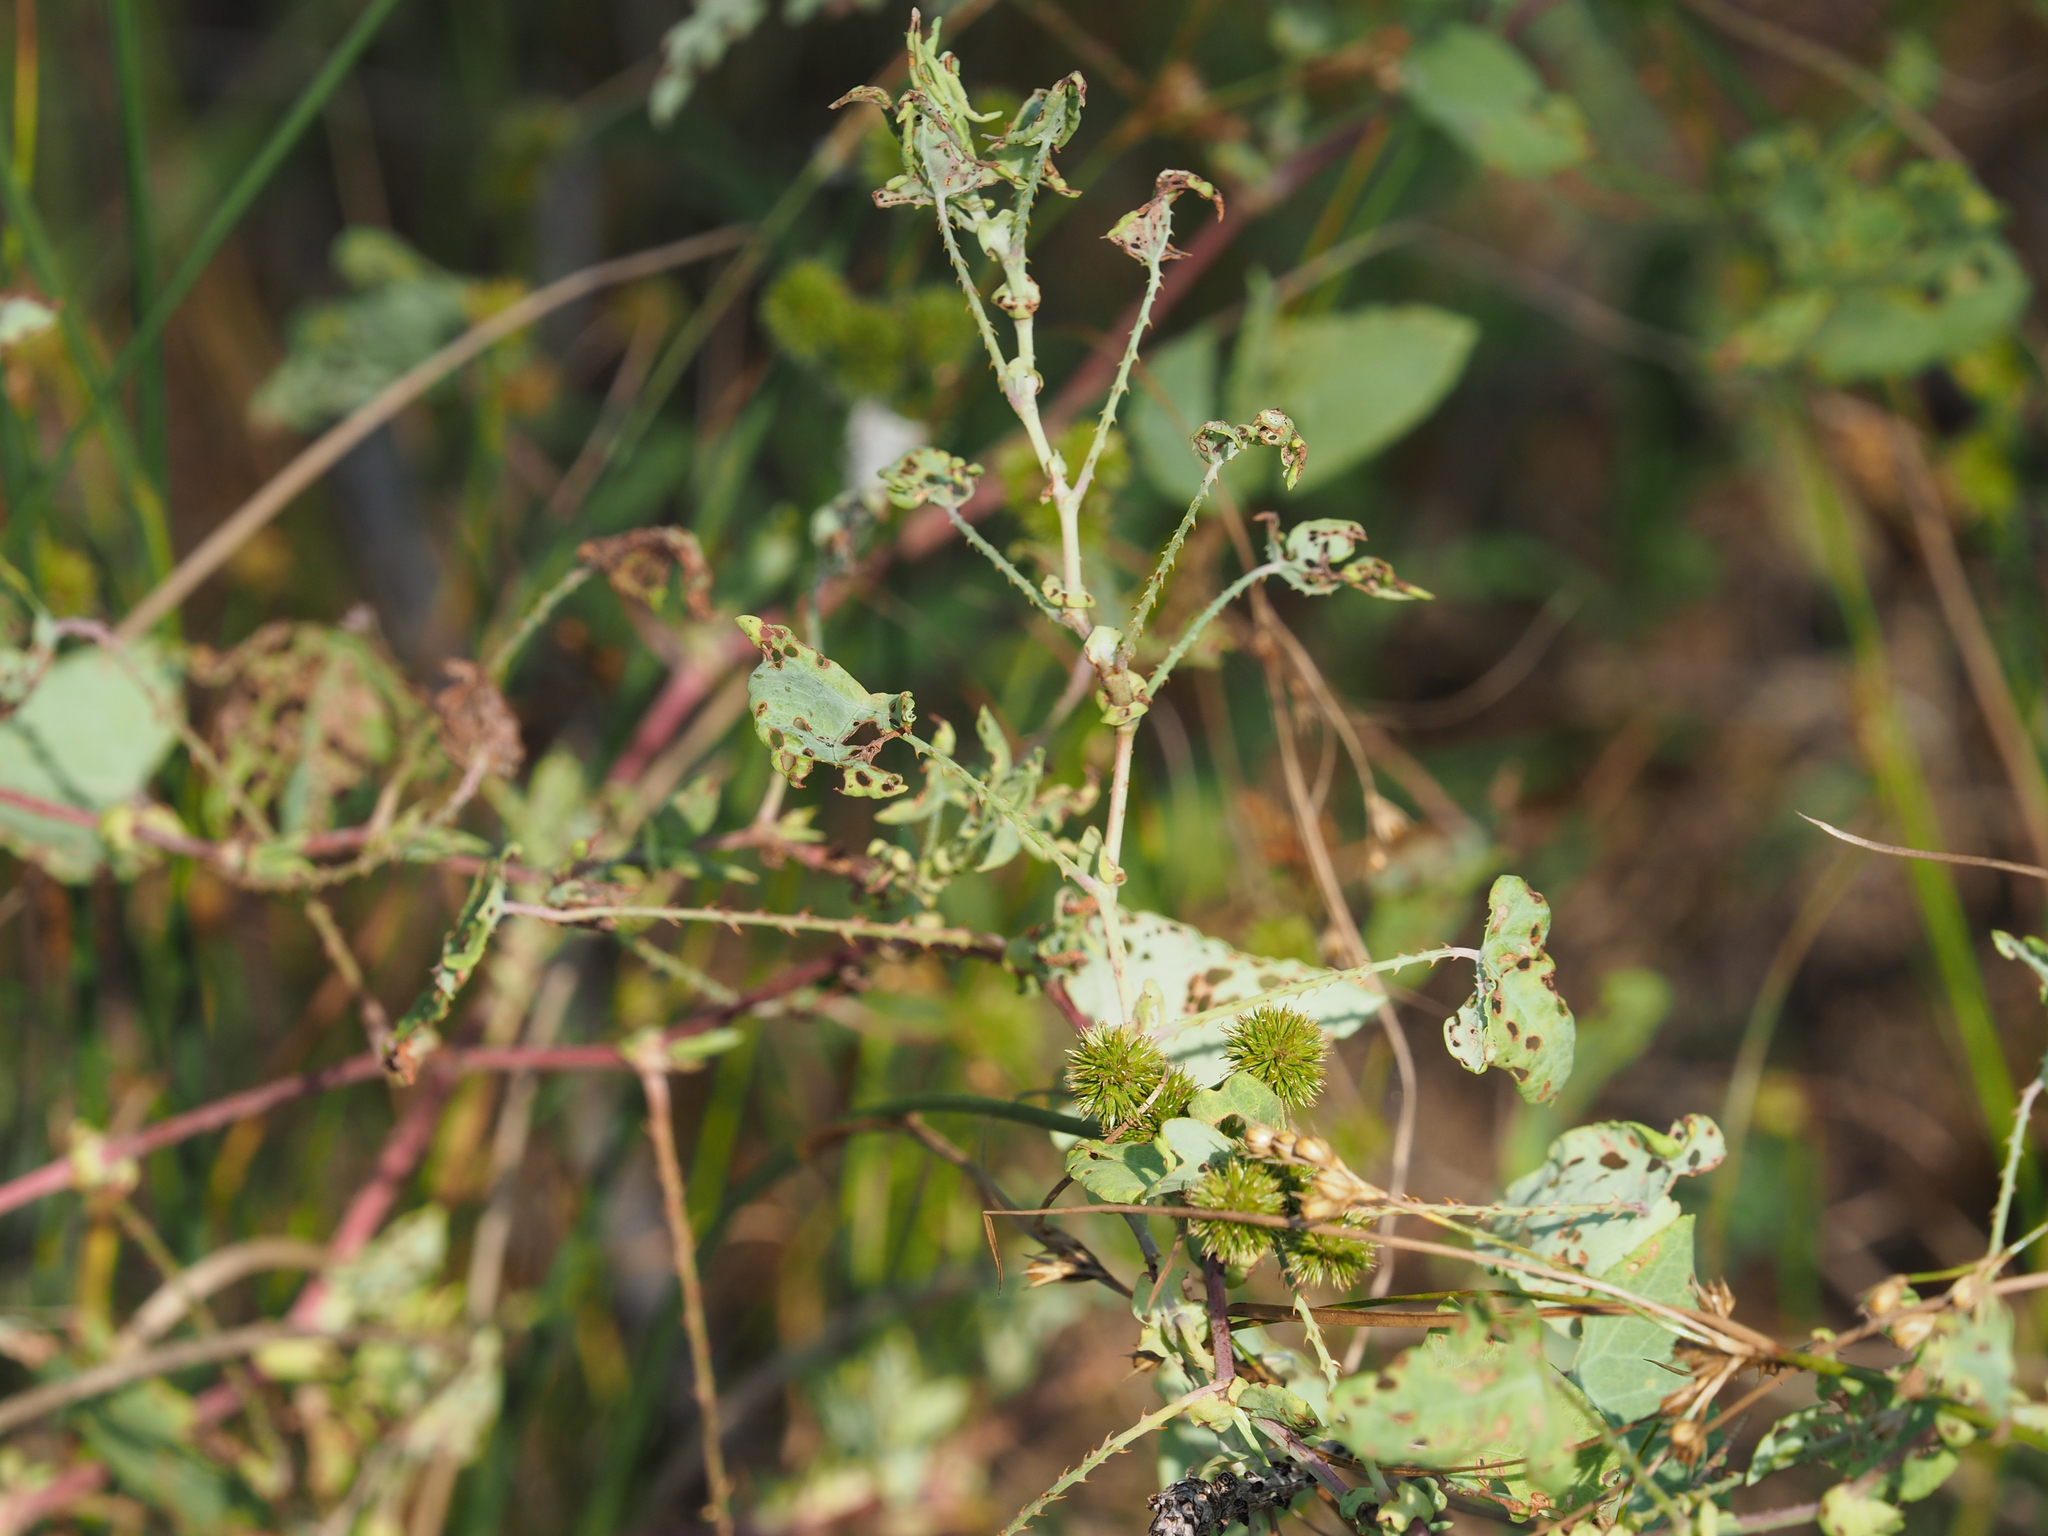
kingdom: Plantae
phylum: Tracheophyta
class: Magnoliopsida
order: Caryophyllales
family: Polygonaceae
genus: Persicaria
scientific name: Persicaria perfoliata
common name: Asiatic tearthumb
